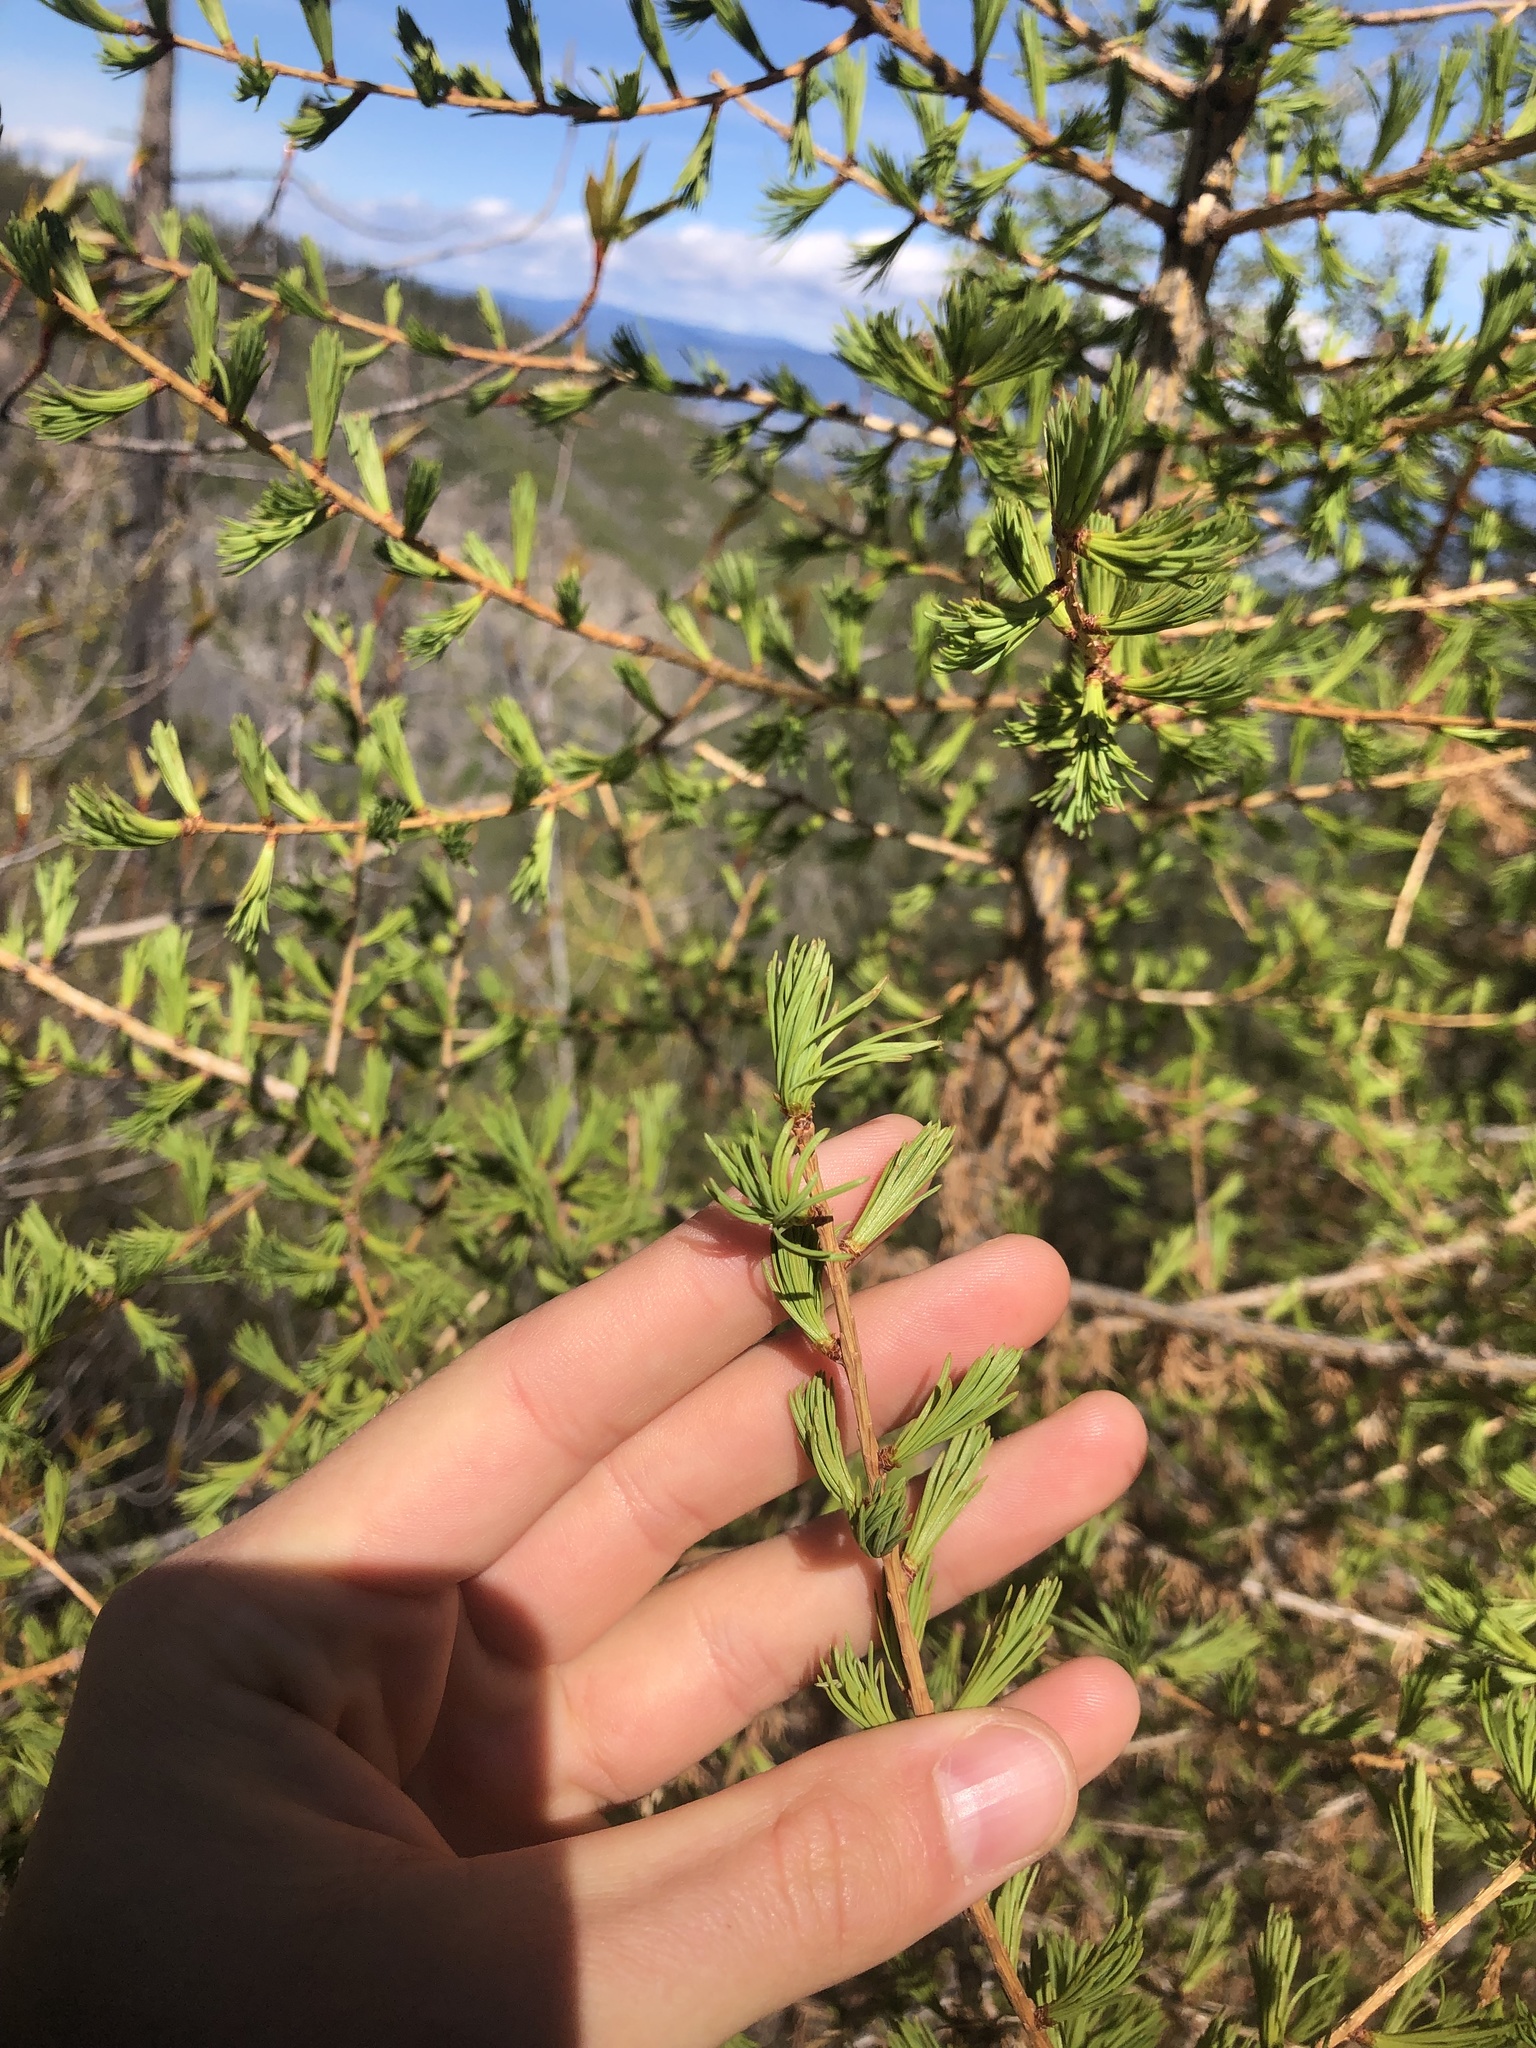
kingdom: Plantae
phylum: Tracheophyta
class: Pinopsida
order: Pinales
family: Pinaceae
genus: Larix
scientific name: Larix occidentalis
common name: Western larch
